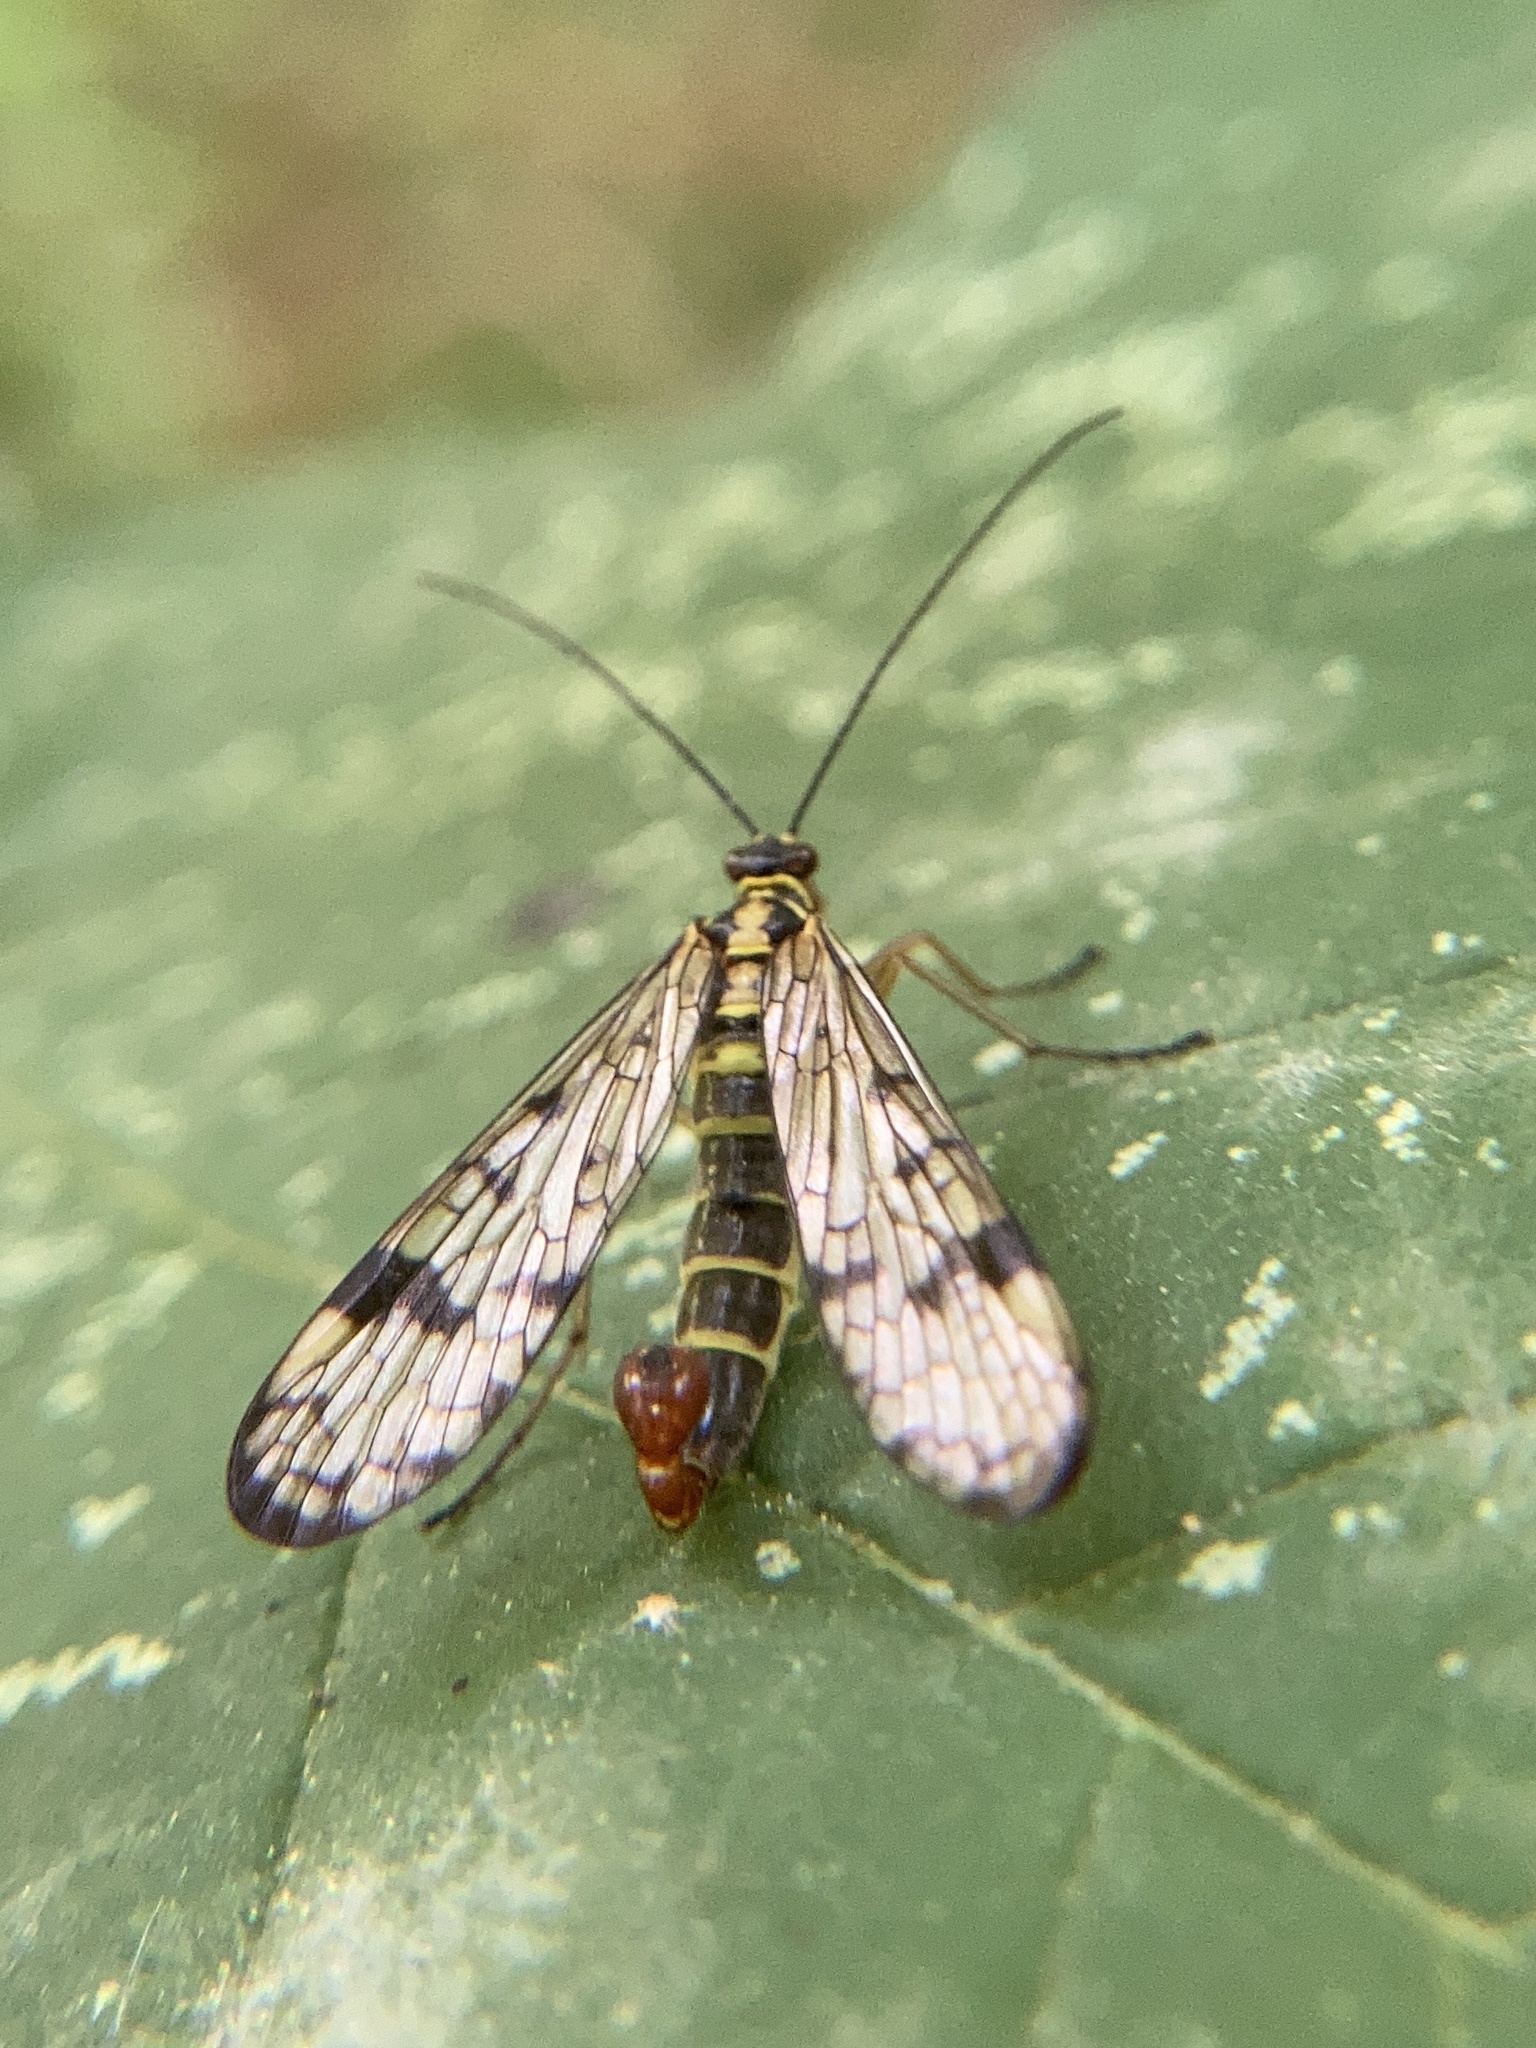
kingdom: Animalia
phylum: Arthropoda
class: Insecta
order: Mecoptera
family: Panorpidae
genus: Panorpa
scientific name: Panorpa communis
